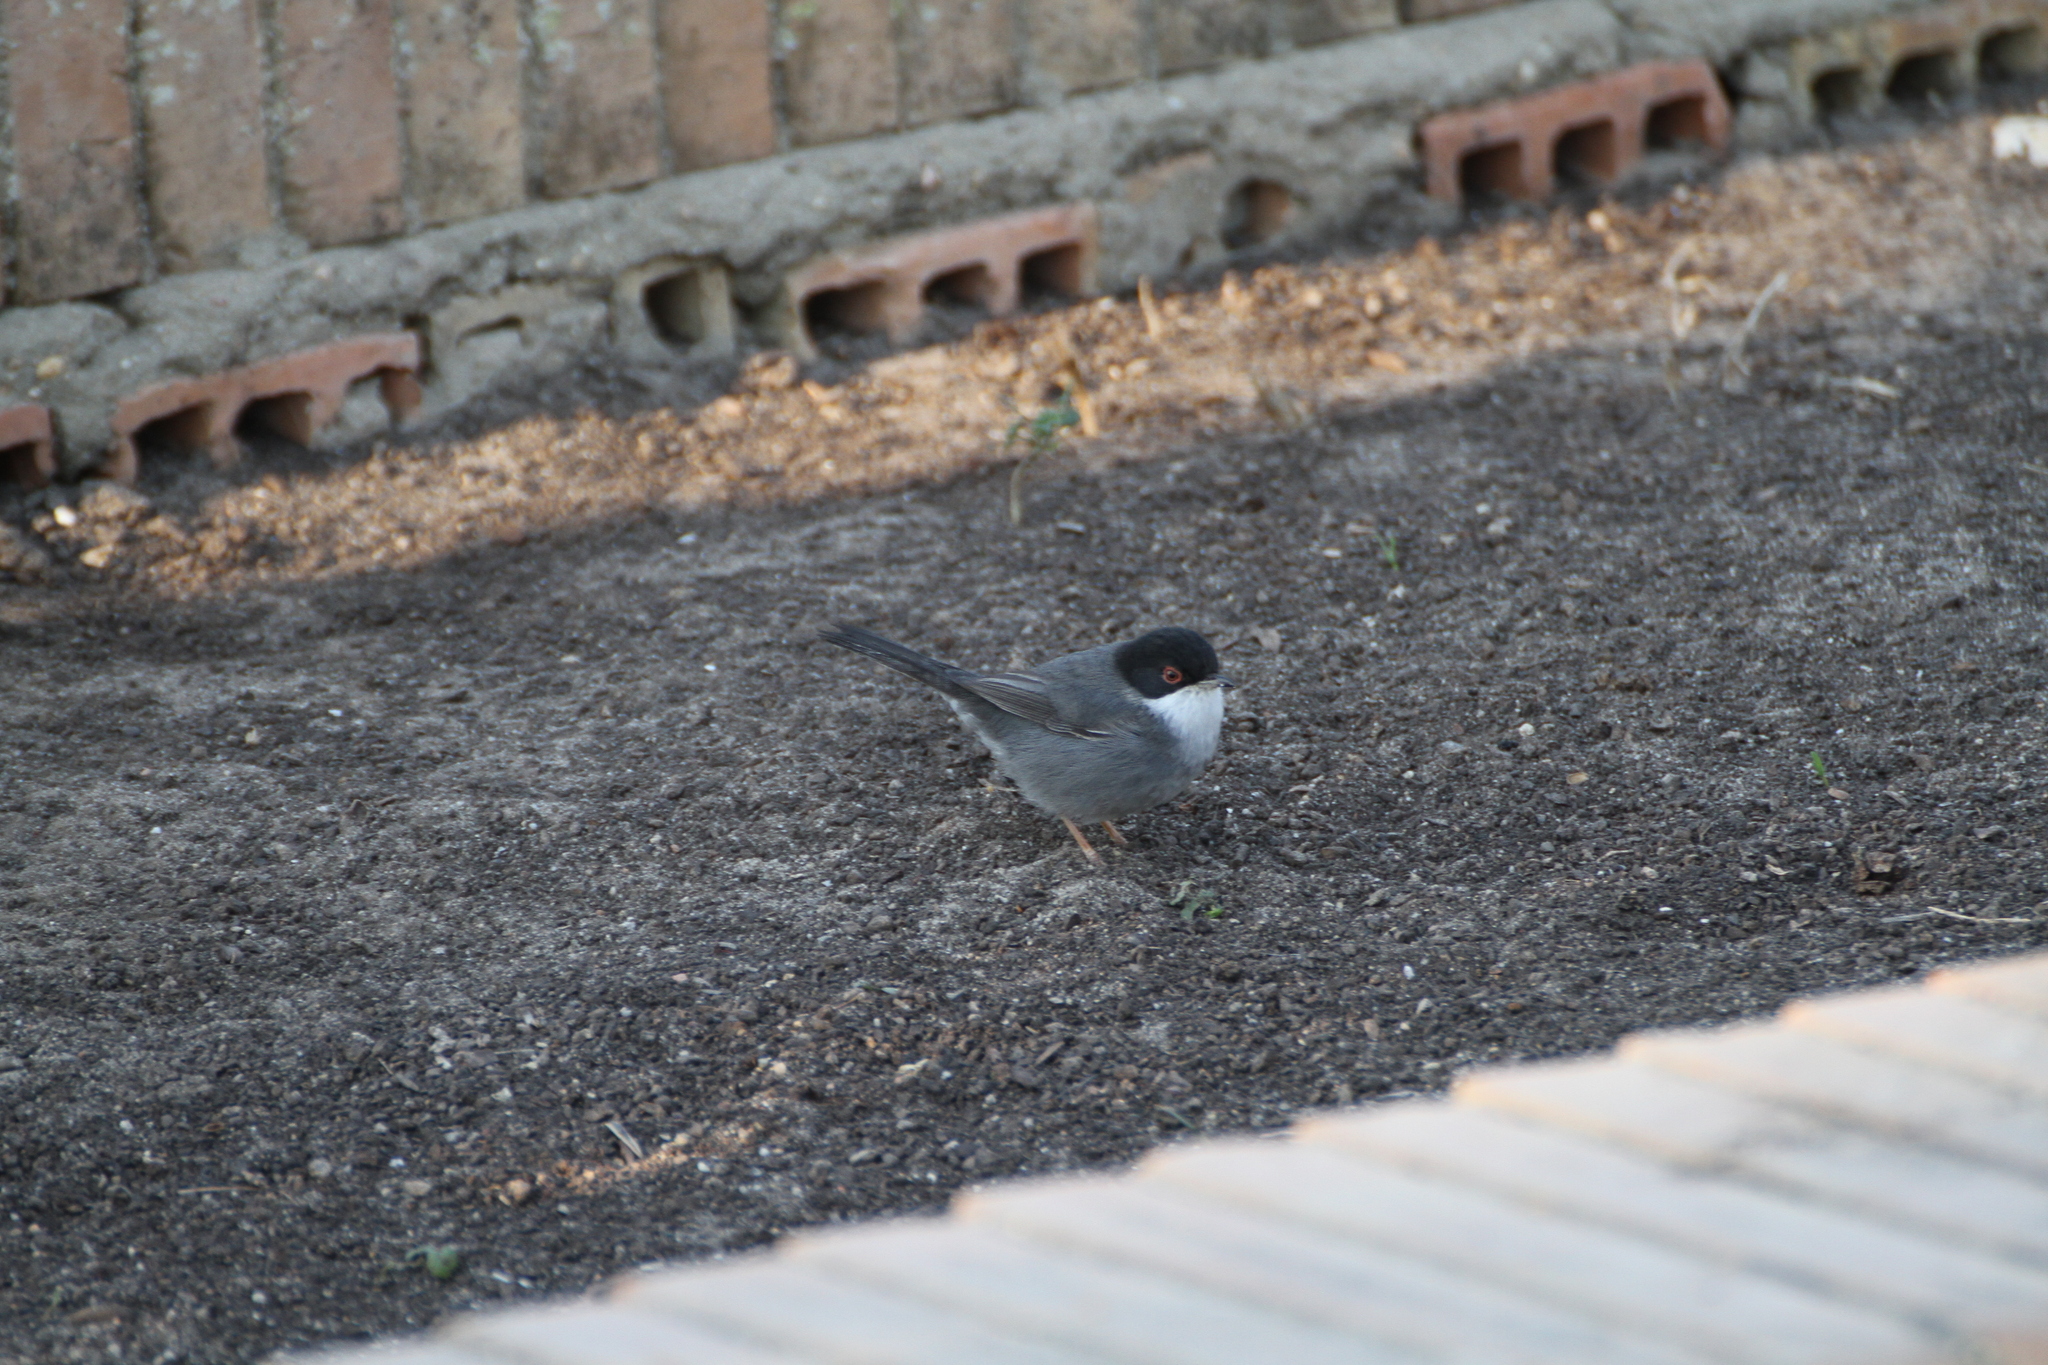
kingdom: Animalia
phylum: Chordata
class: Aves
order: Passeriformes
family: Sylviidae
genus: Curruca
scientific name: Curruca melanocephala
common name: Sardinian warbler
